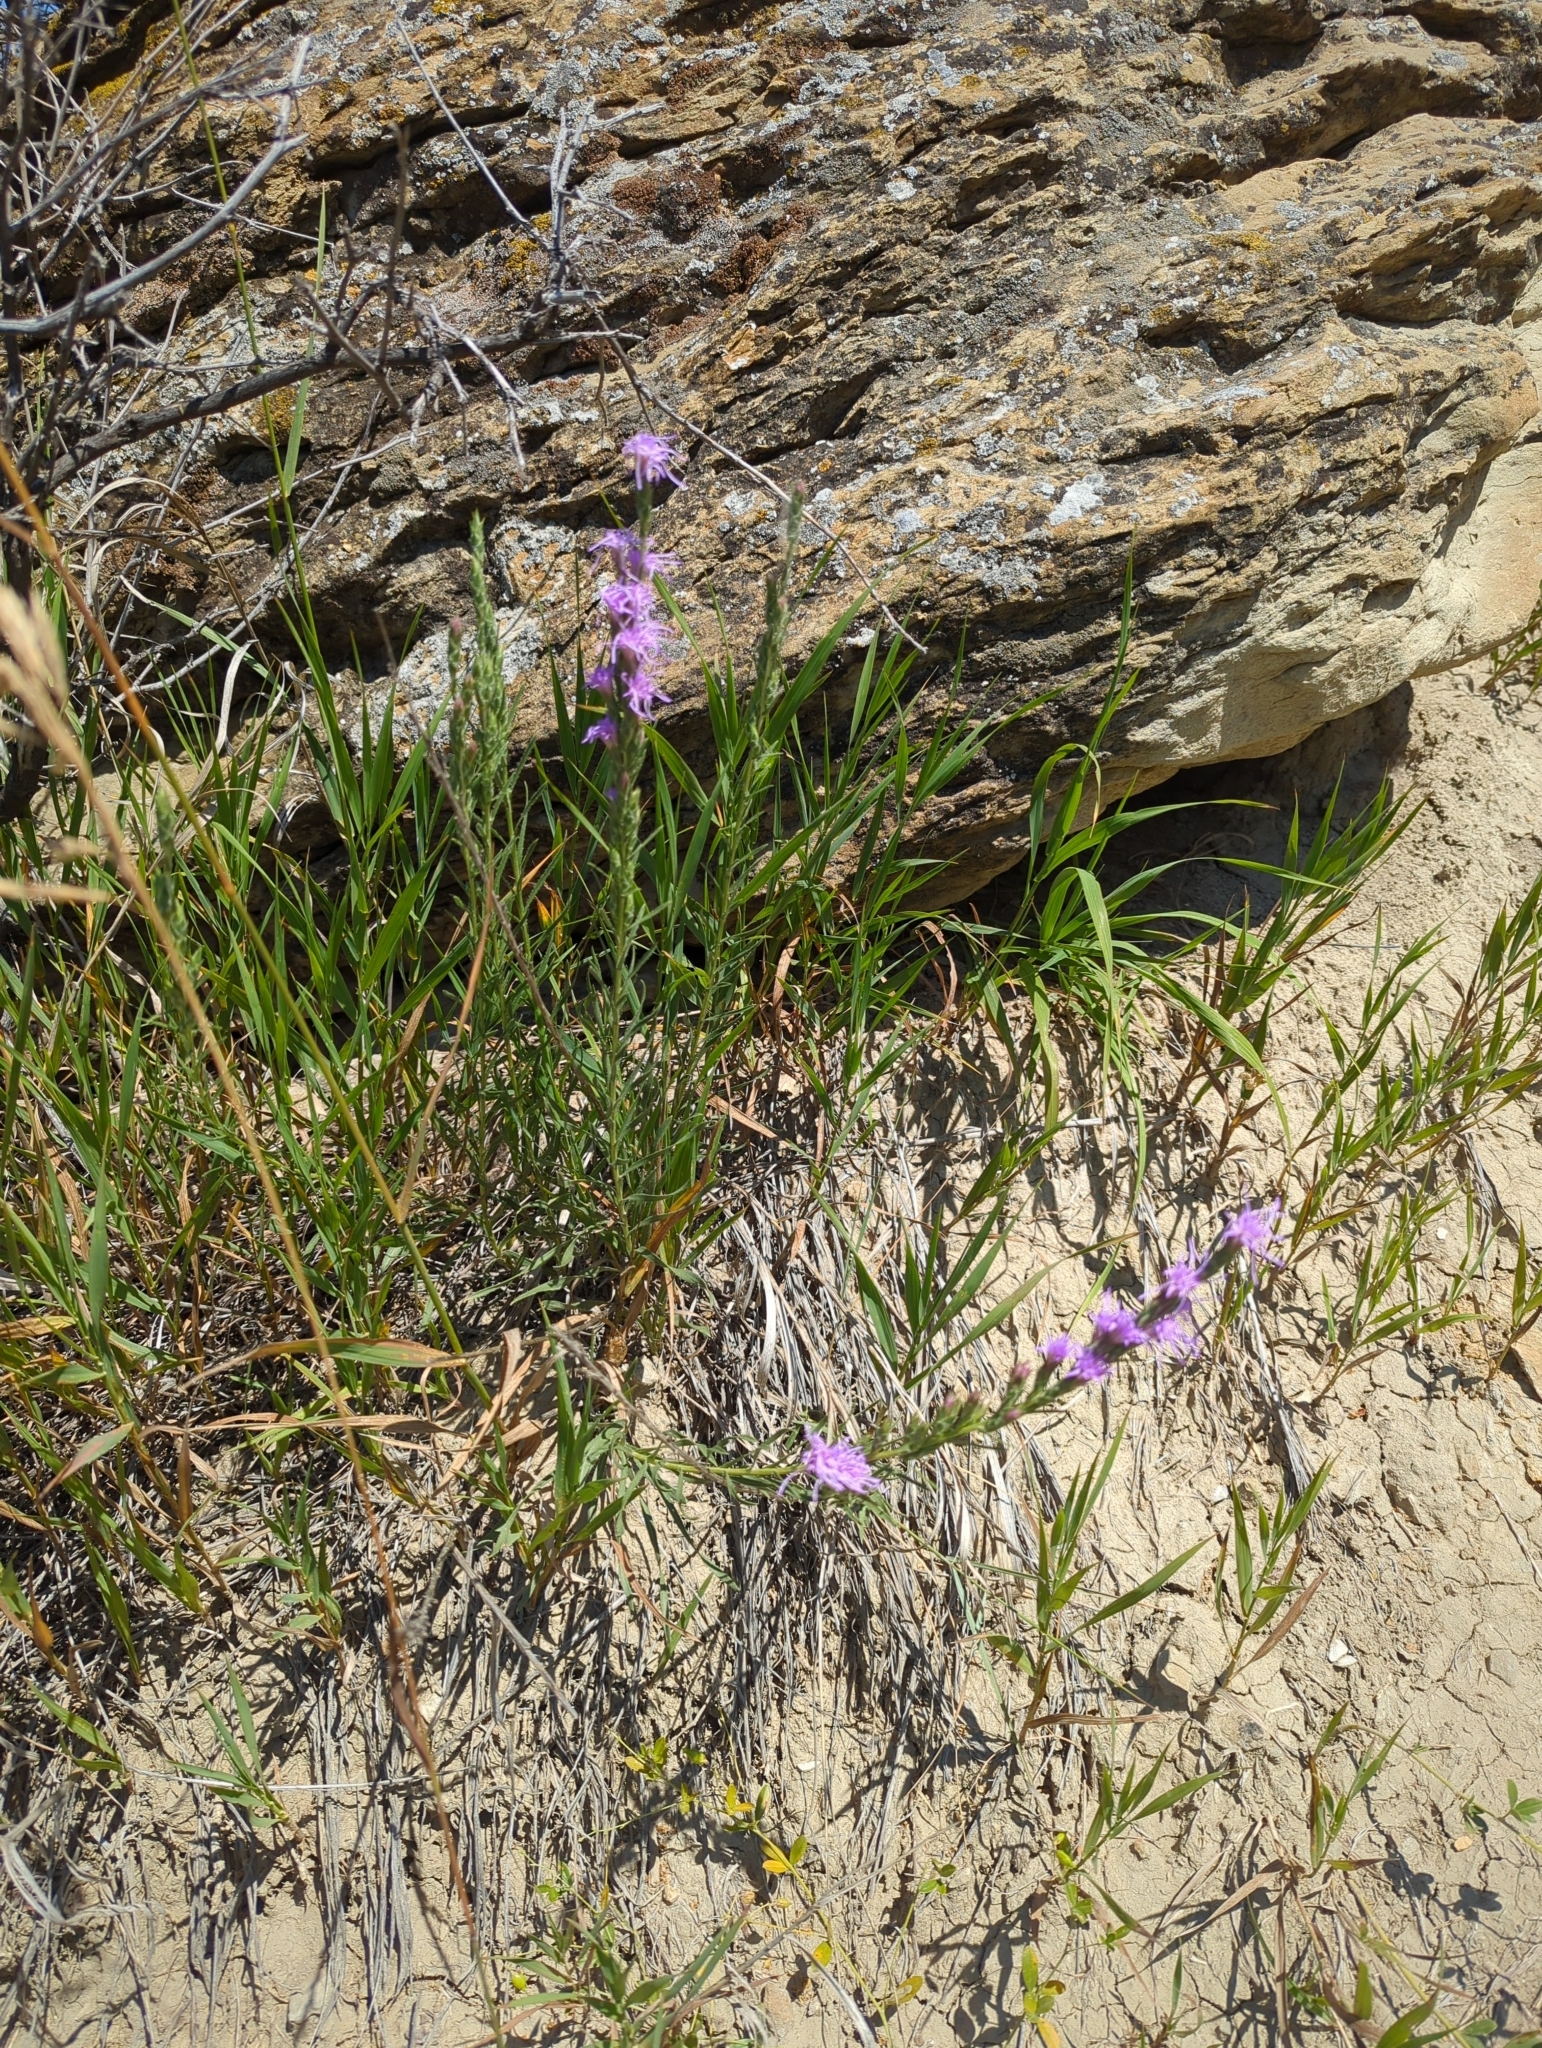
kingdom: Plantae
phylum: Tracheophyta
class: Magnoliopsida
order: Asterales
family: Asteraceae
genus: Liatris
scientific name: Liatris punctata
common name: Dotted gayfeather
